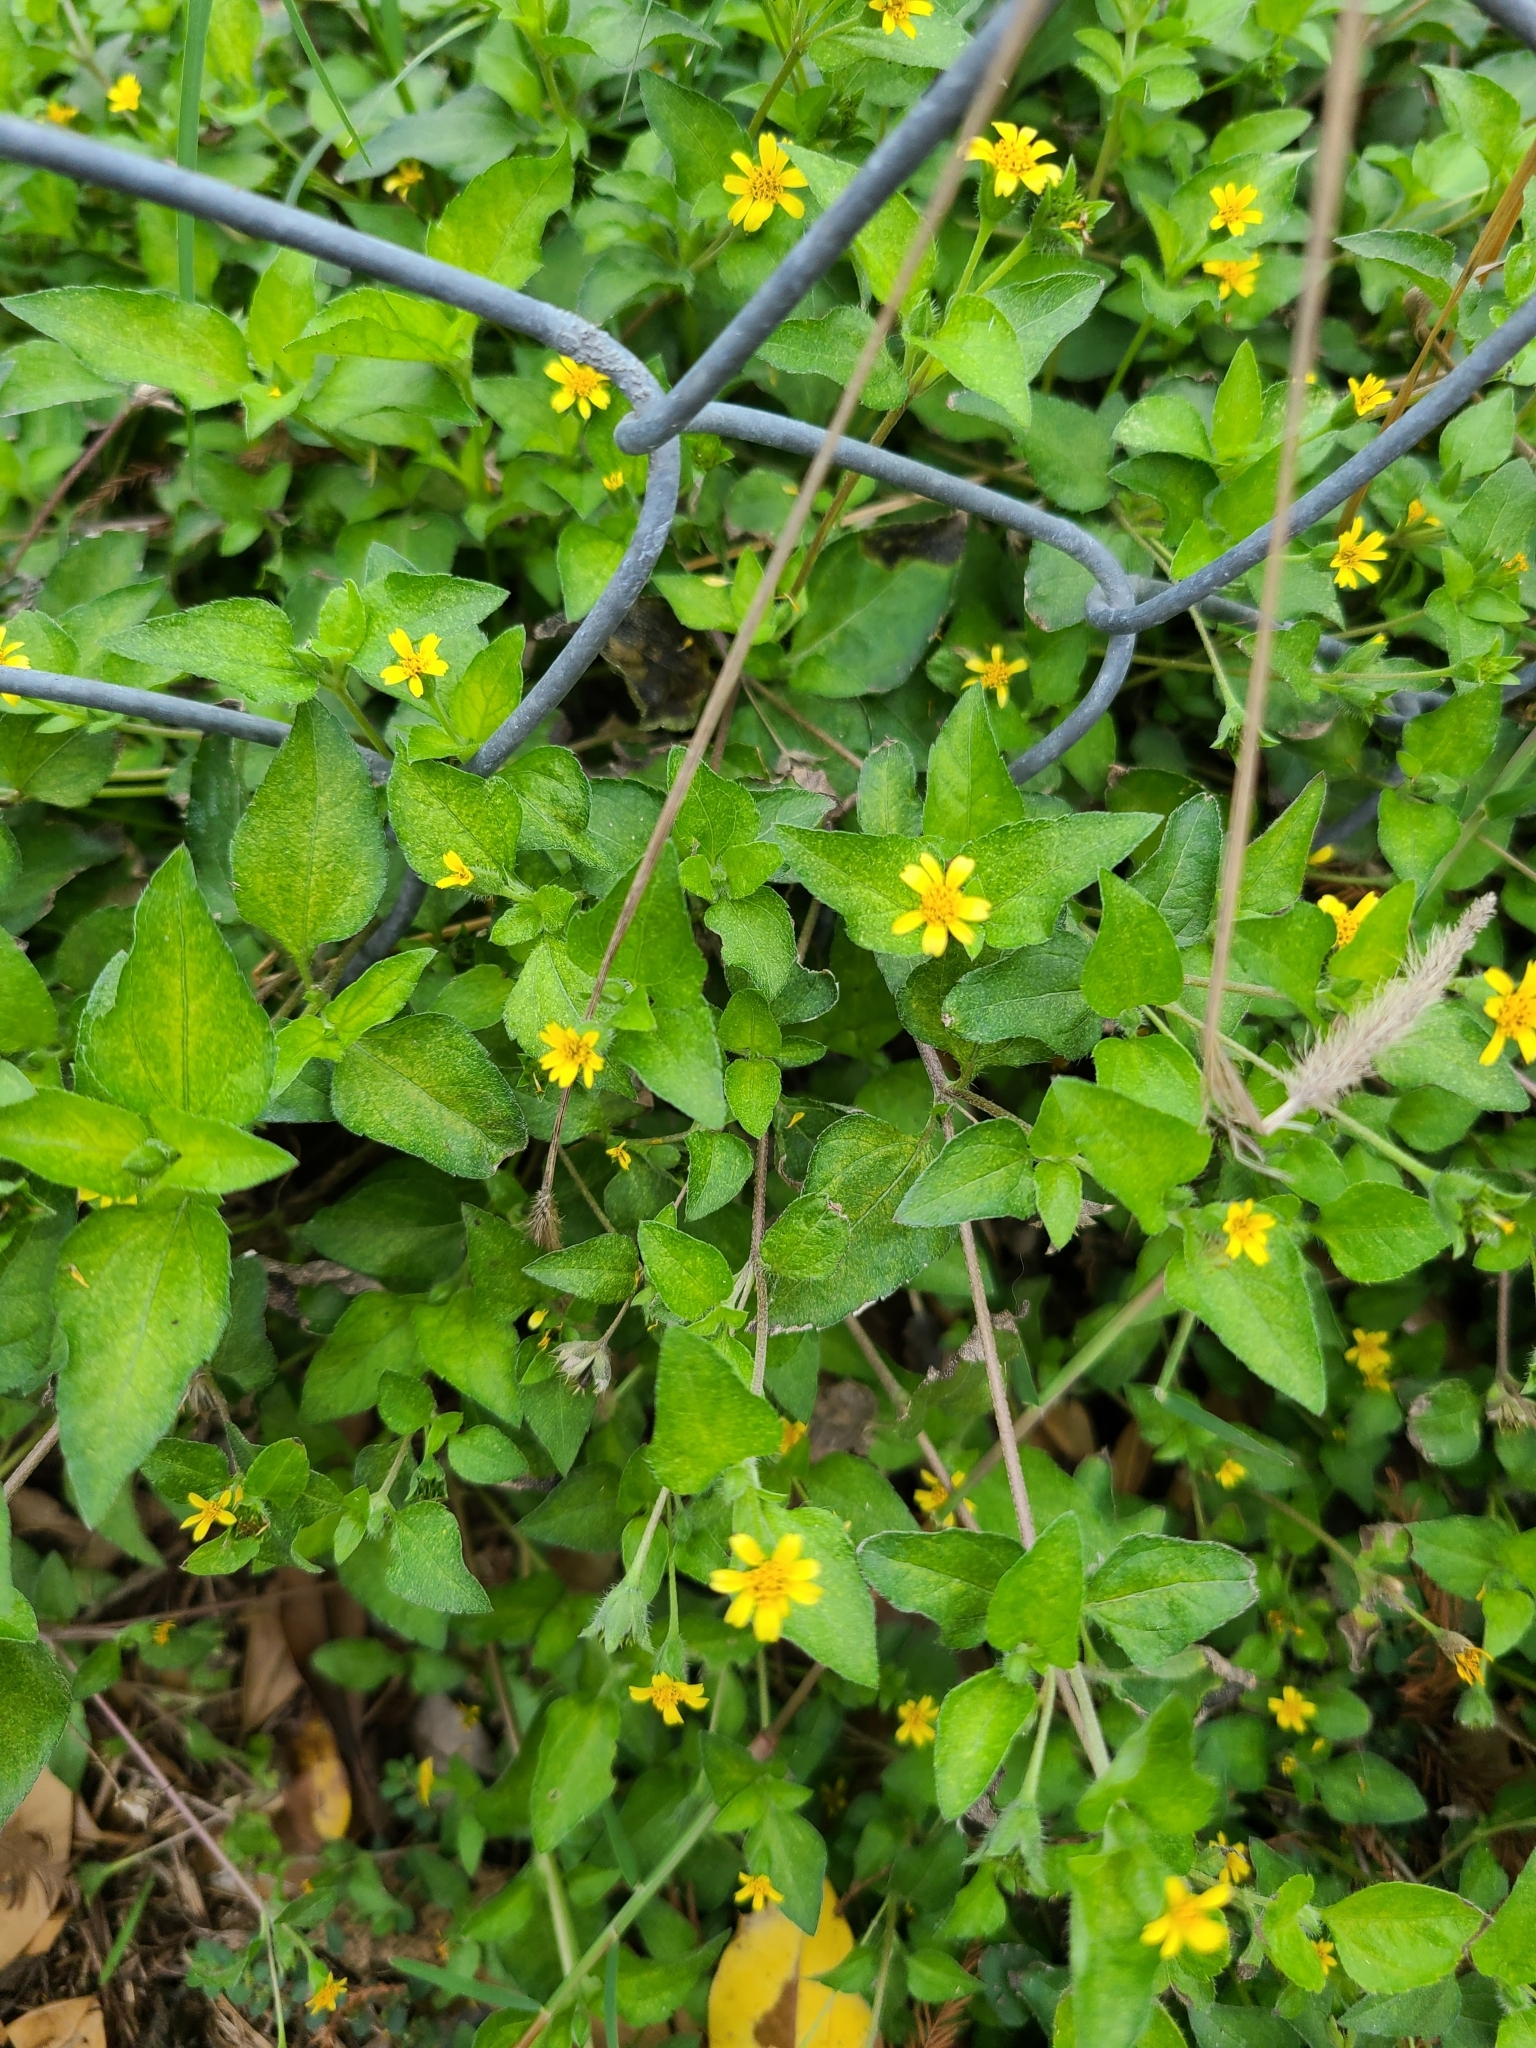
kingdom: Plantae
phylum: Tracheophyta
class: Magnoliopsida
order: Asterales
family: Asteraceae
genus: Calyptocarpus
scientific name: Calyptocarpus vialis
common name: Straggler daisy
